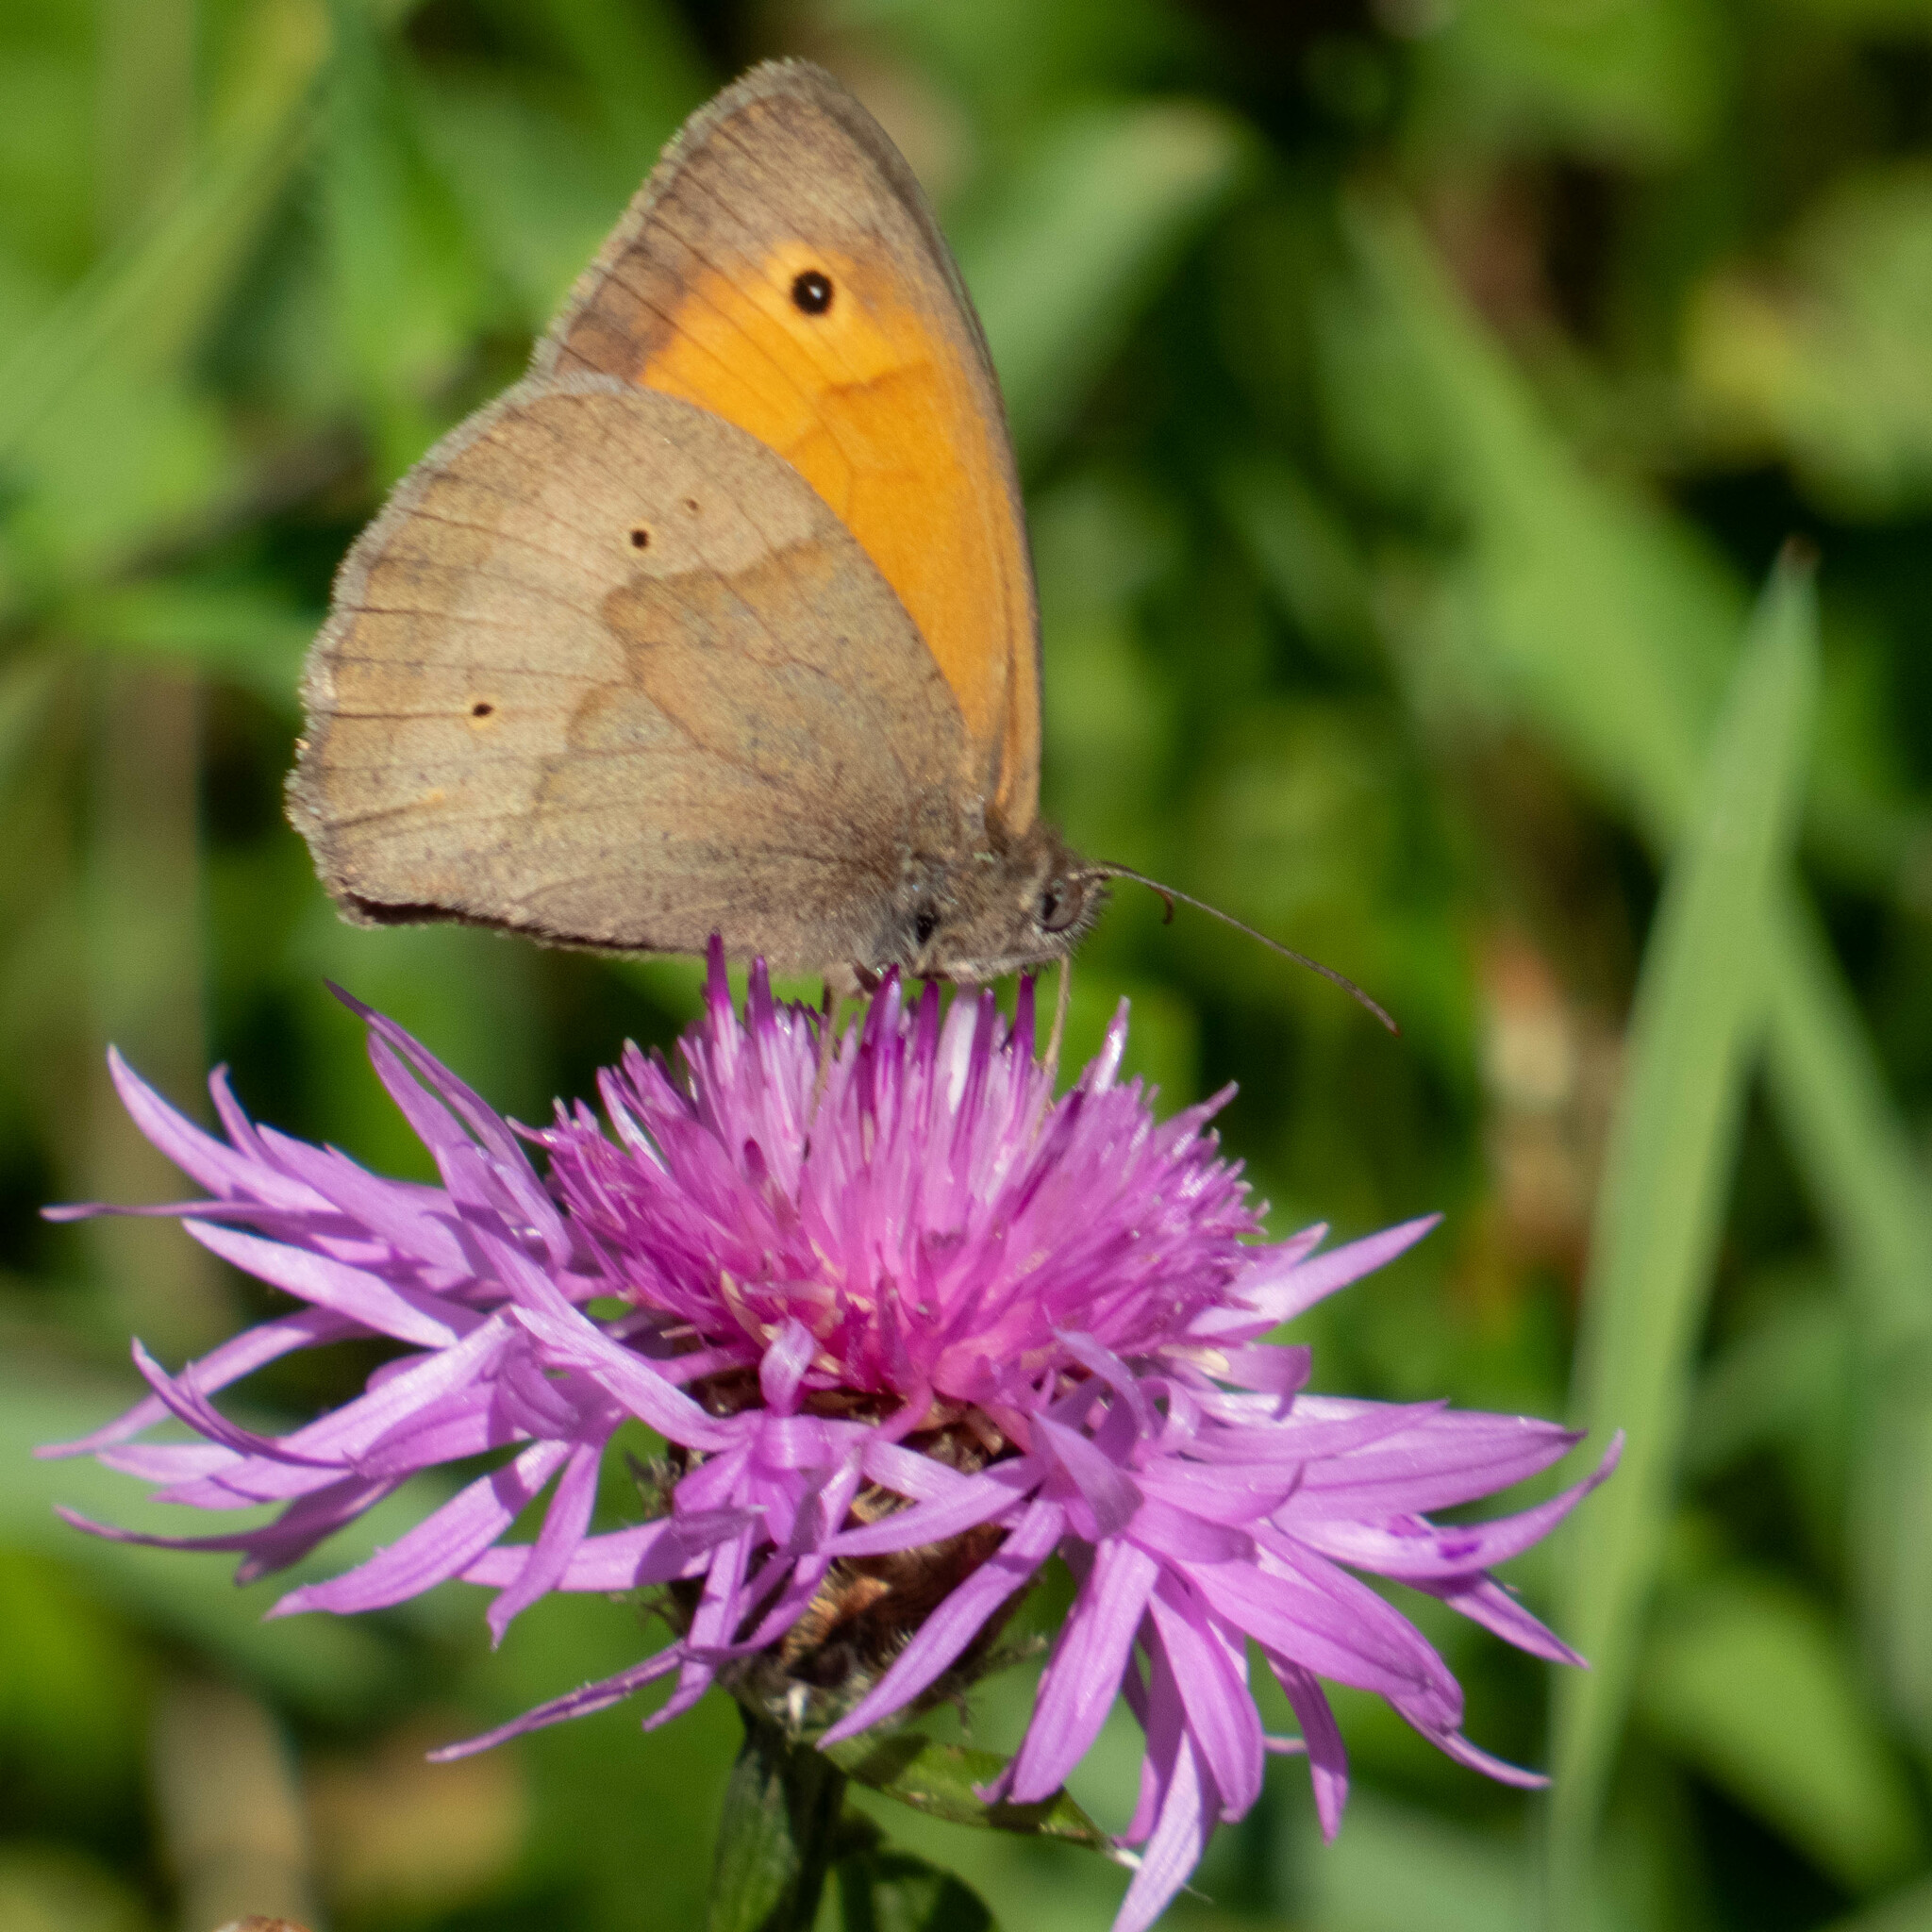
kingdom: Animalia
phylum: Arthropoda
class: Insecta
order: Lepidoptera
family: Nymphalidae
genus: Maniola
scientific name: Maniola jurtina
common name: Meadow brown
